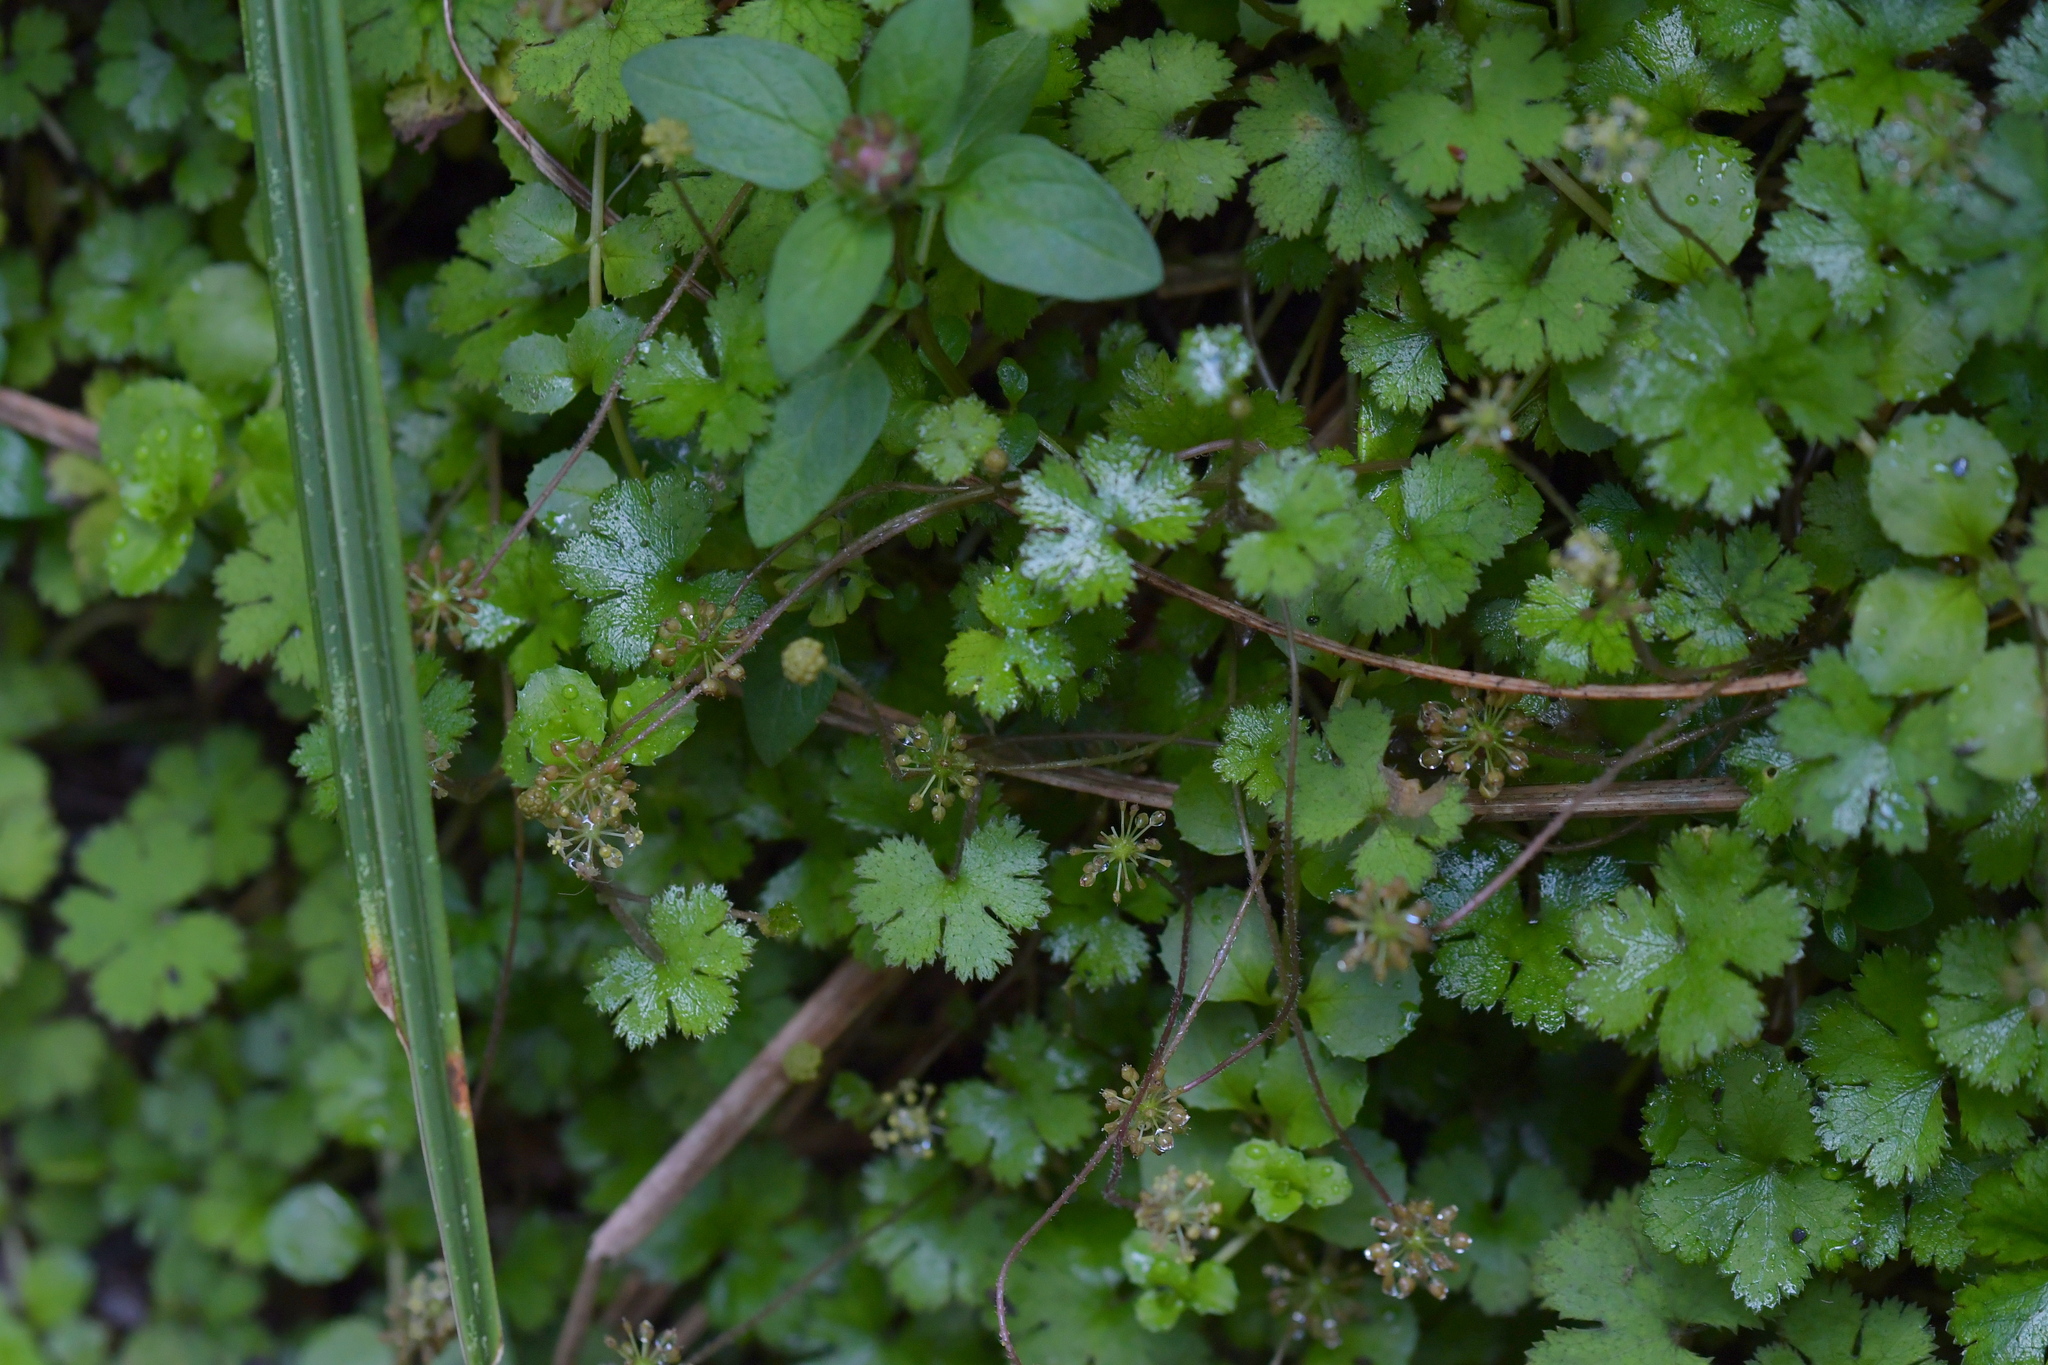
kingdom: Plantae
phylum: Tracheophyta
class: Magnoliopsida
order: Apiales
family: Araliaceae
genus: Hydrocotyle
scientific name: Hydrocotyle elongata
